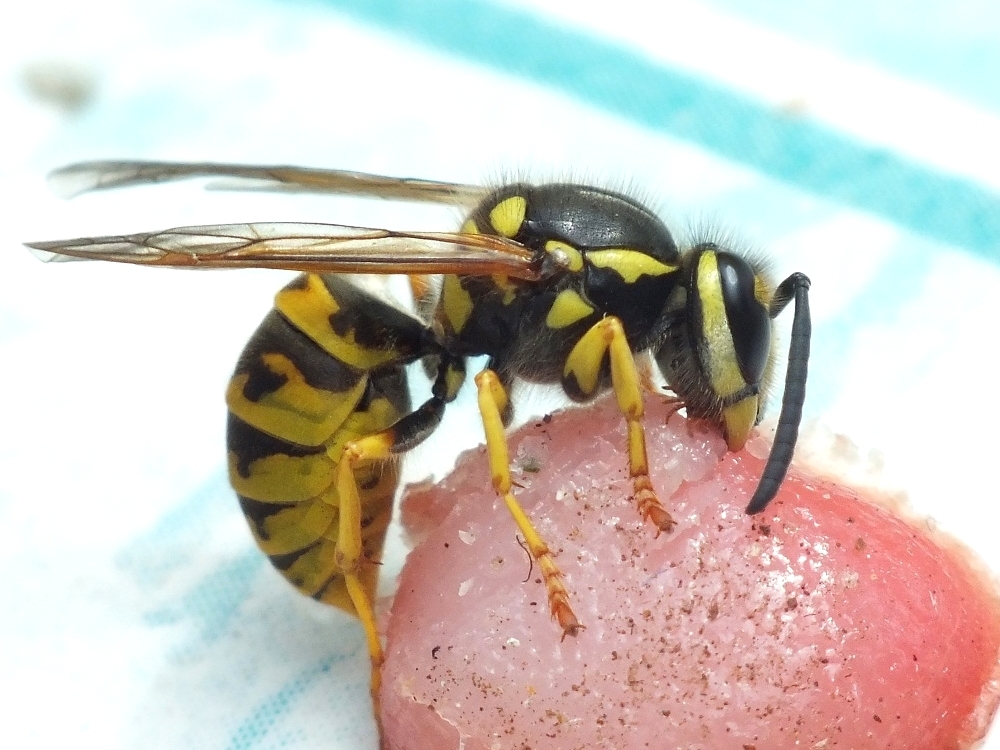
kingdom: Animalia
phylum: Arthropoda
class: Insecta
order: Hymenoptera
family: Vespidae
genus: Vespula
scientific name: Vespula germanica
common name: German wasp
